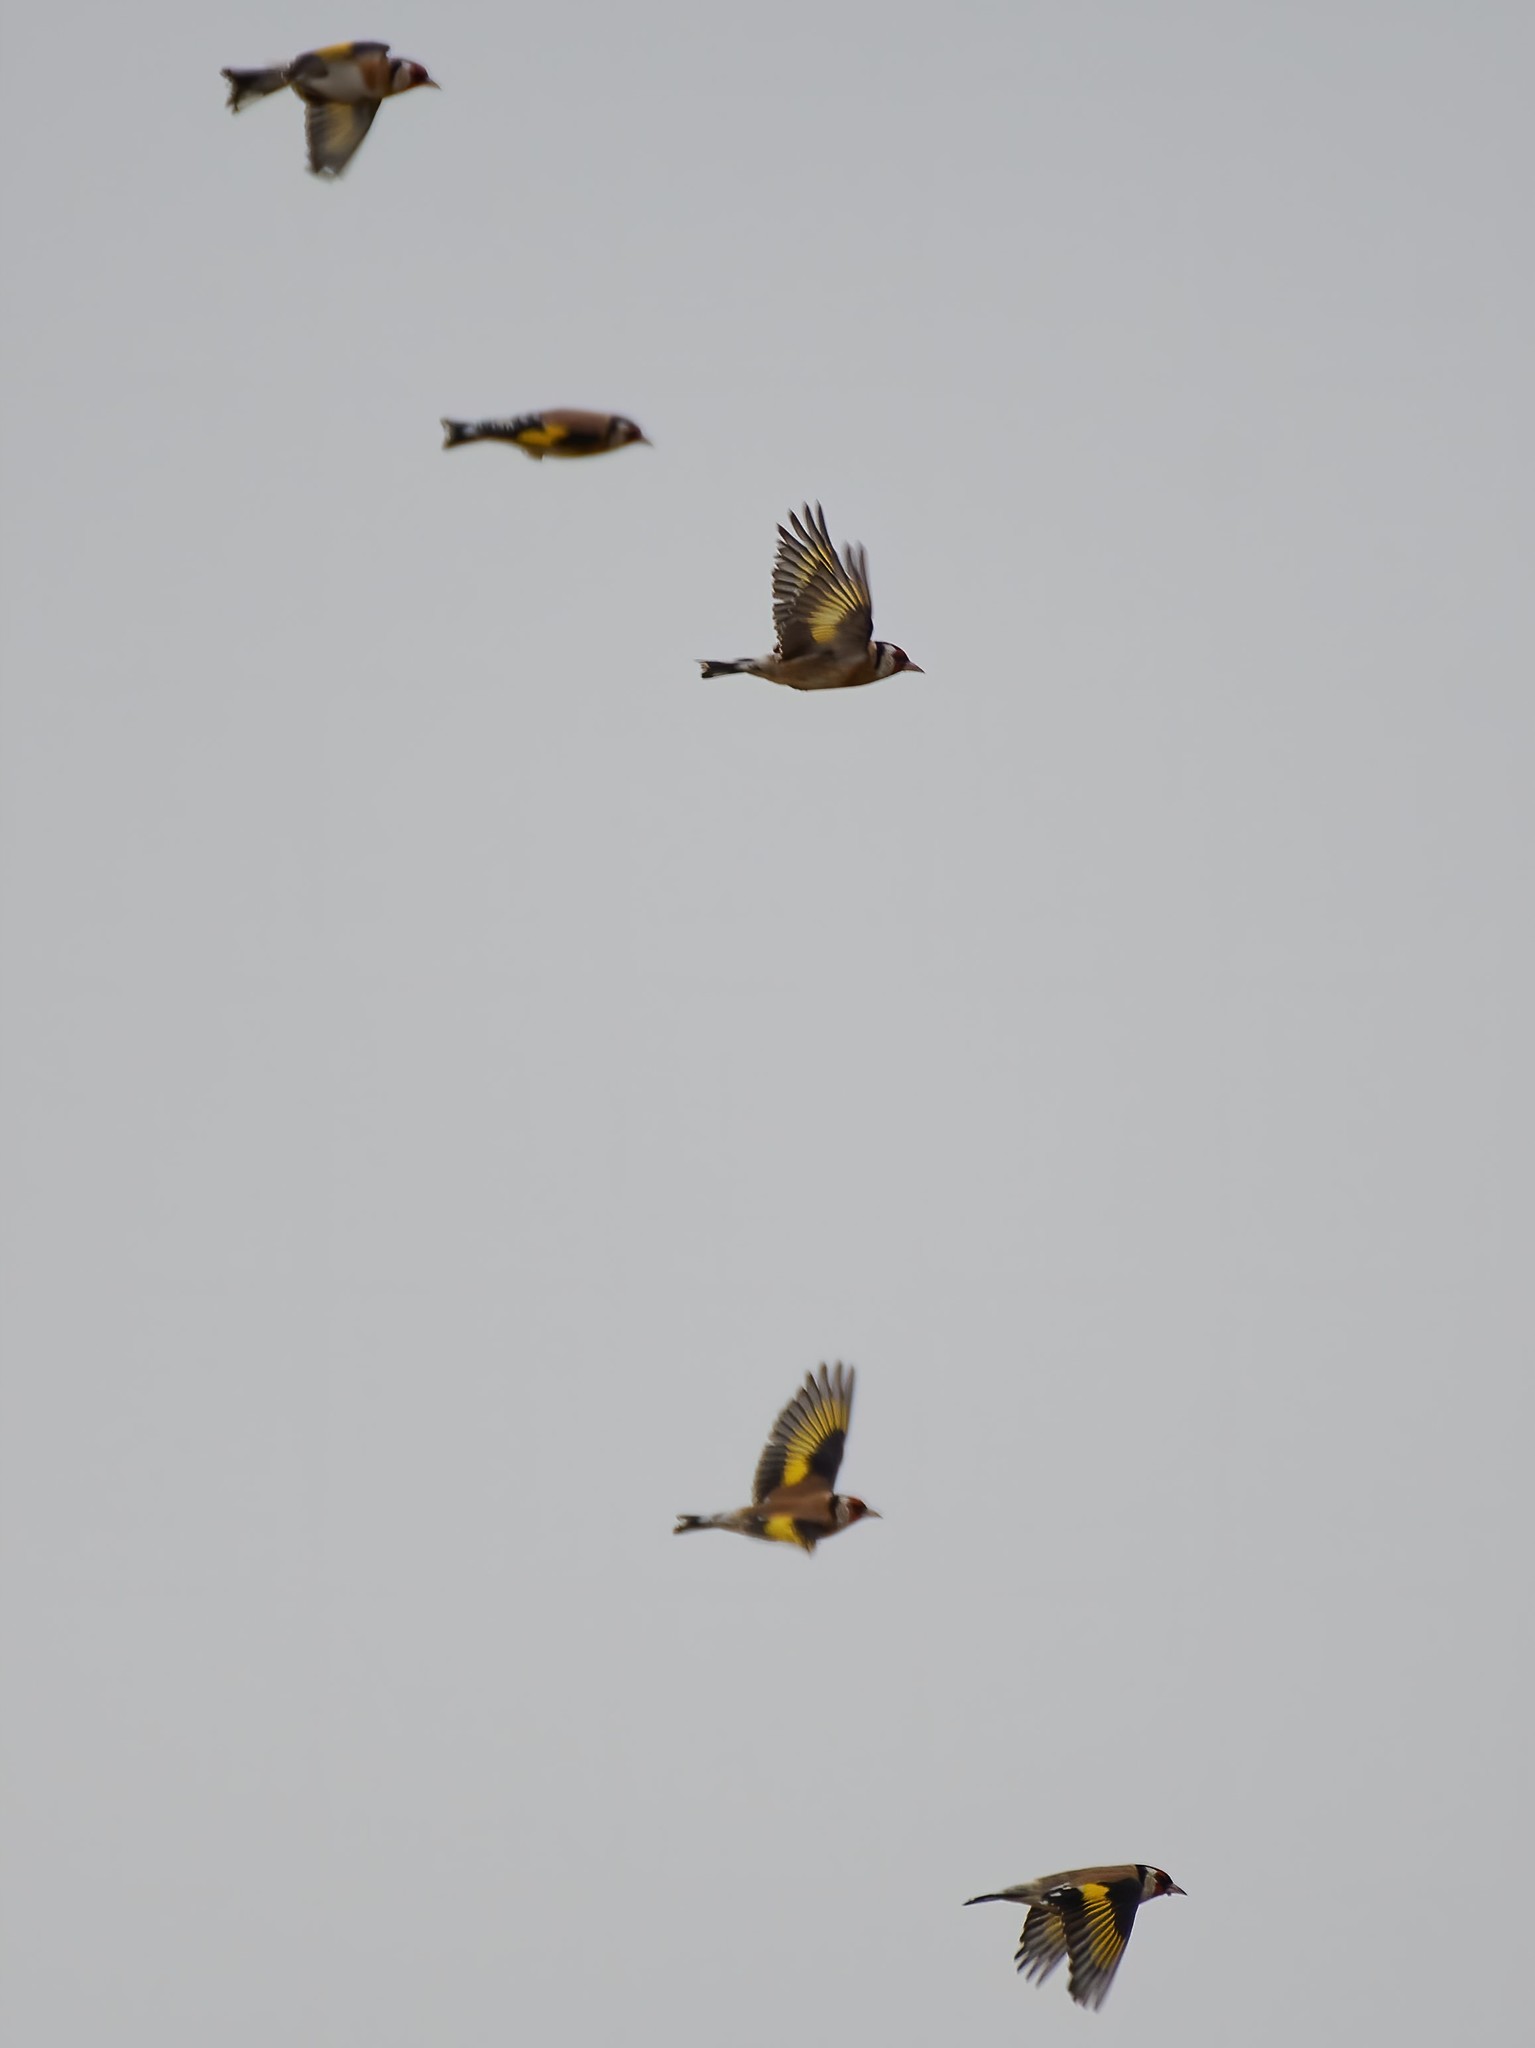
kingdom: Animalia
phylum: Chordata
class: Aves
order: Passeriformes
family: Fringillidae
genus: Carduelis
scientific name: Carduelis carduelis
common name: European goldfinch
